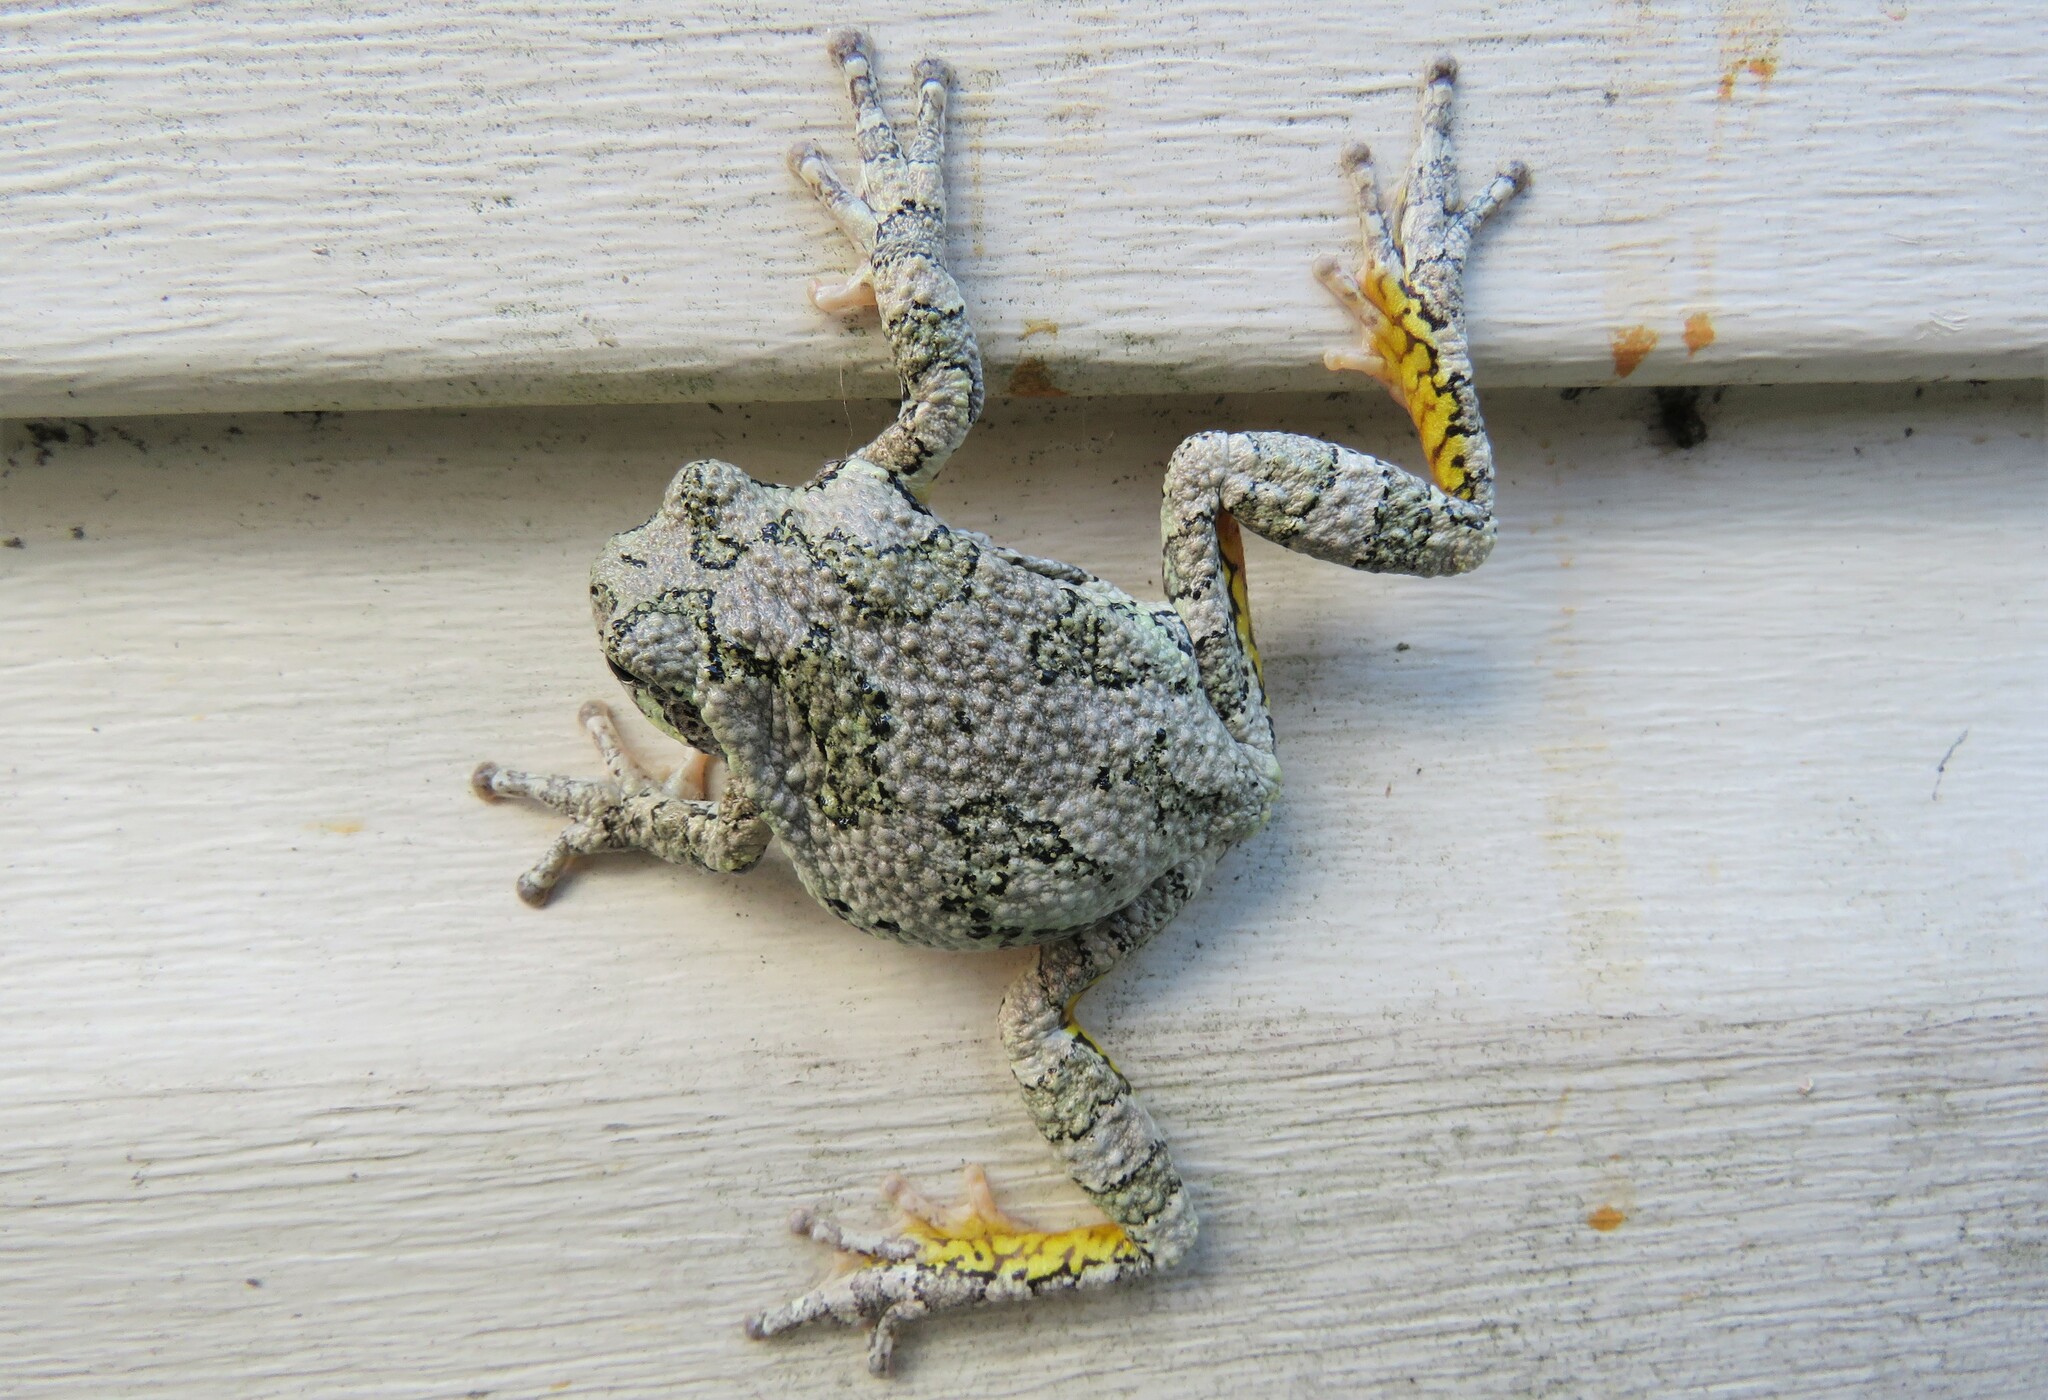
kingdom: Animalia
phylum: Chordata
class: Amphibia
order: Anura
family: Hylidae
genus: Dryophytes
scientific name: Dryophytes versicolor
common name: Gray treefrog
